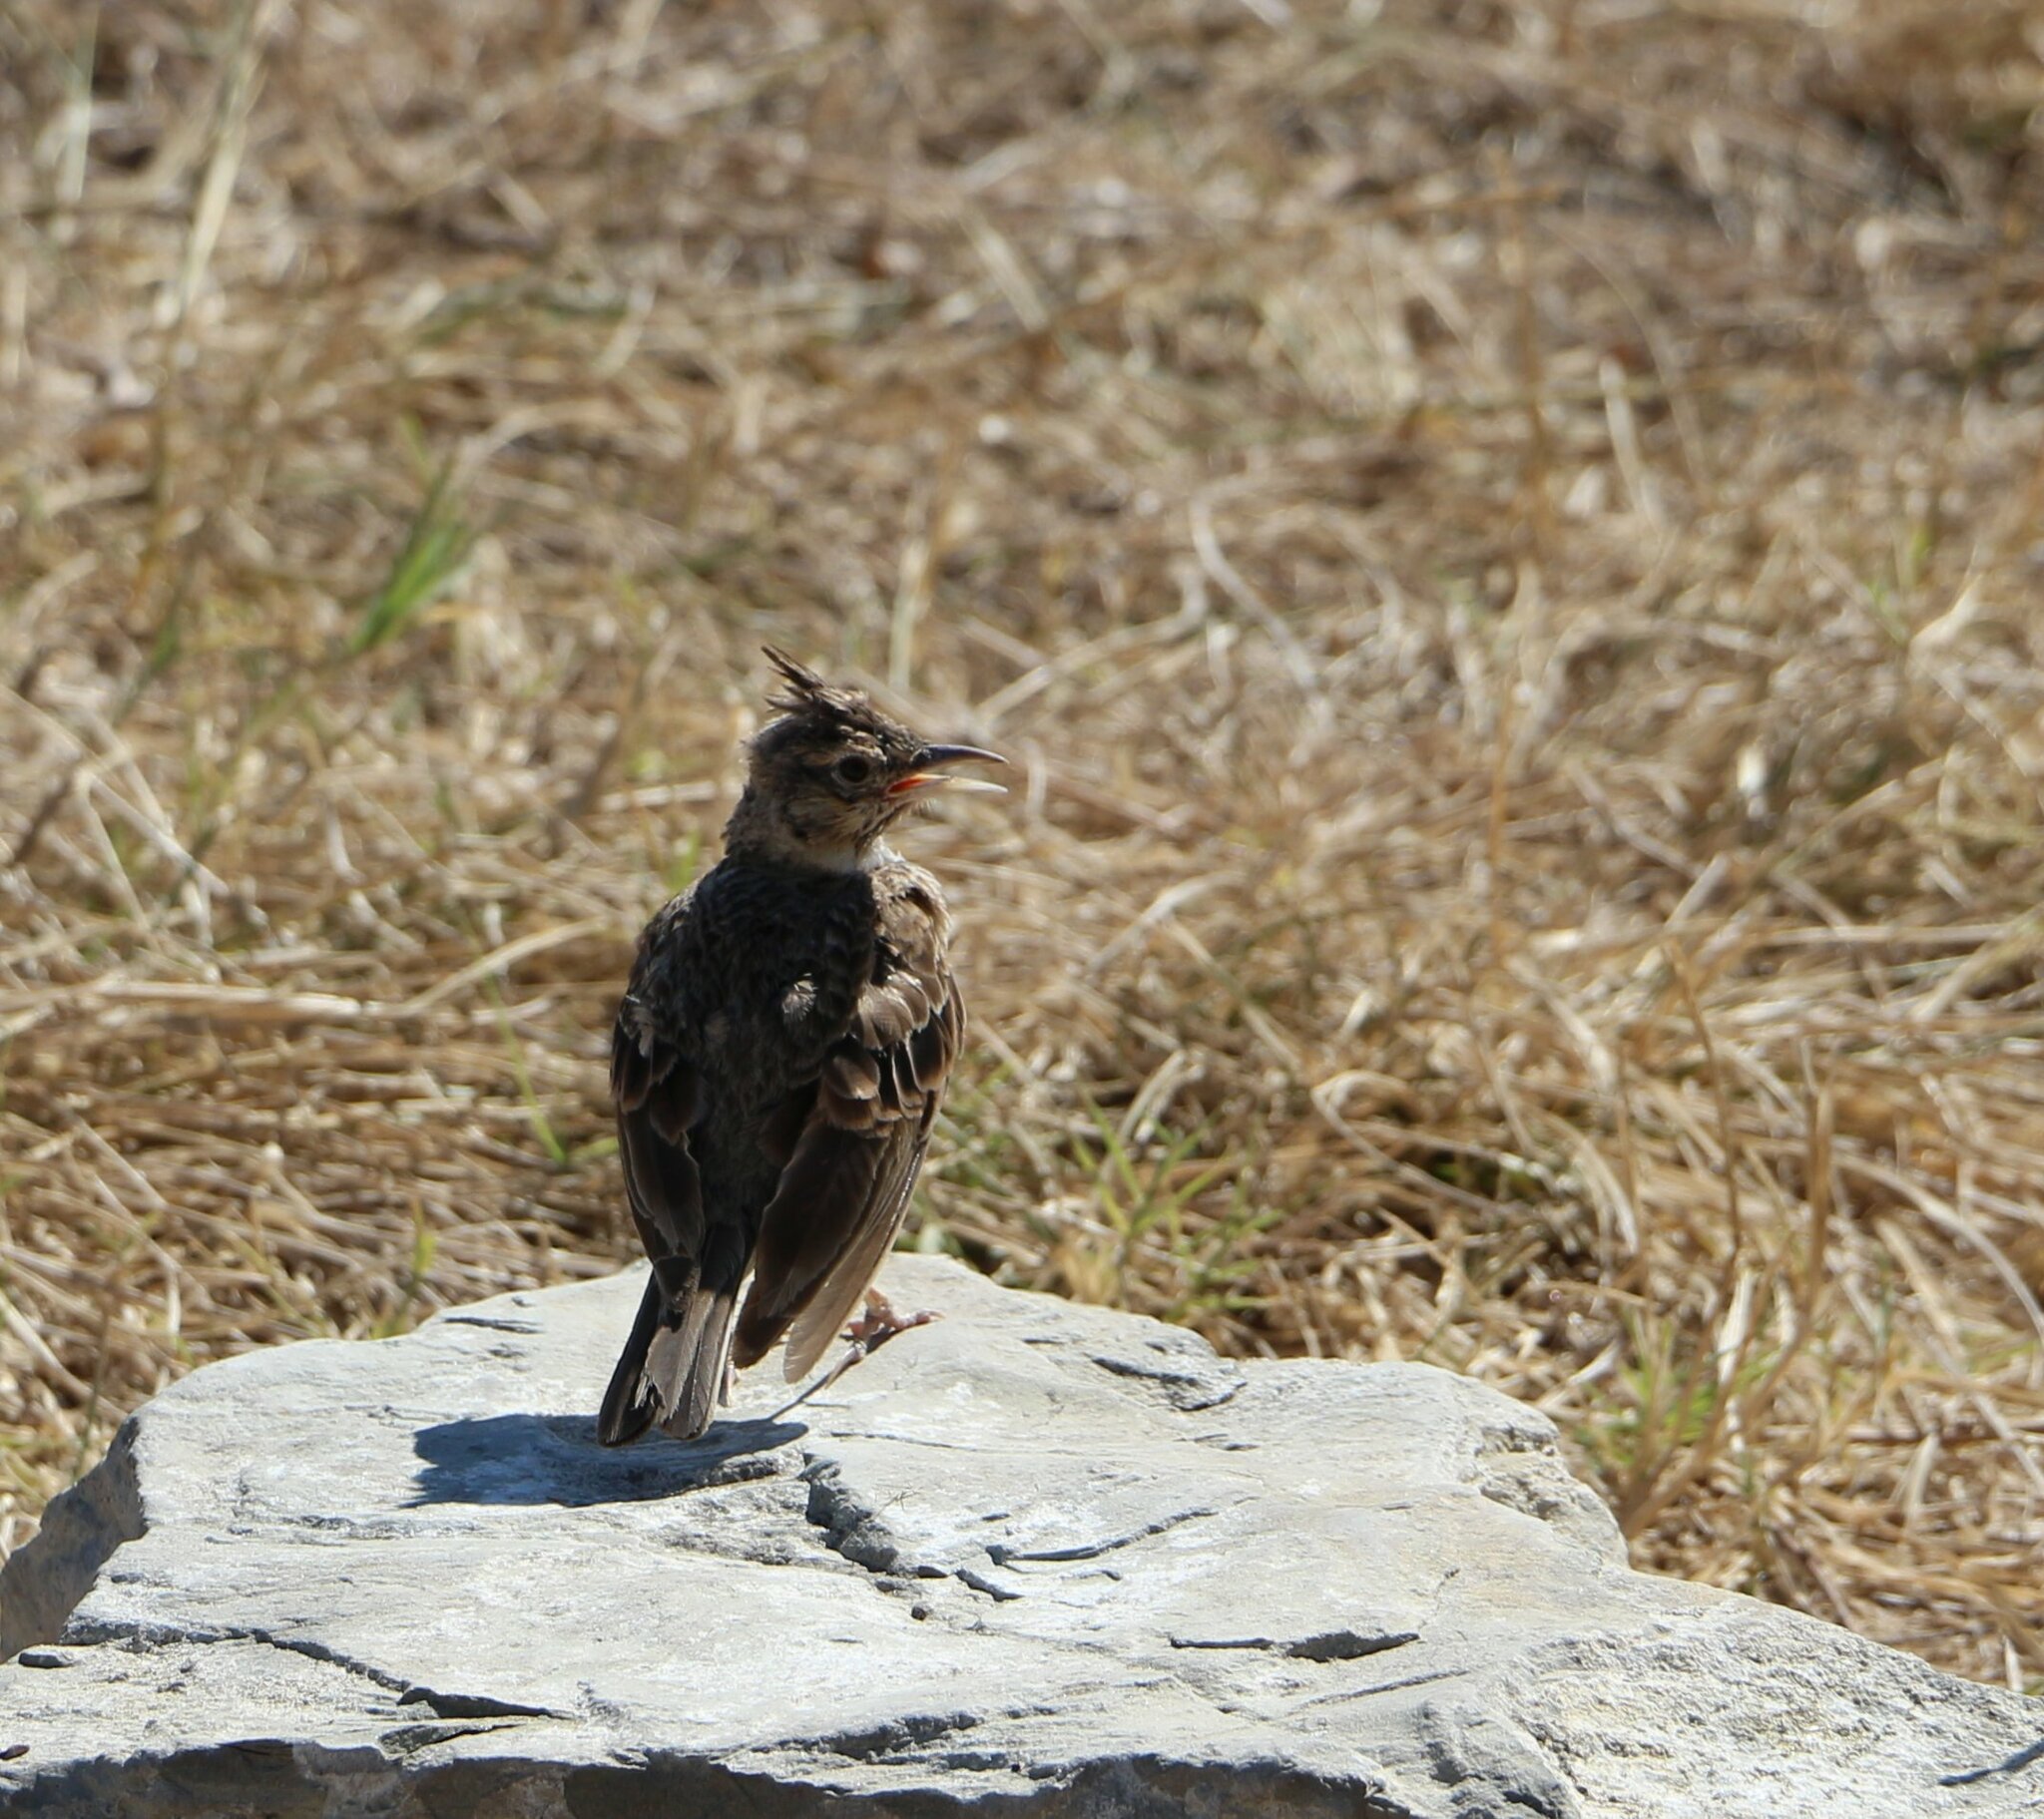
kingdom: Animalia
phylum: Chordata
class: Aves
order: Passeriformes
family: Alaudidae
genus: Galerida
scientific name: Galerida cristata
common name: Crested lark
